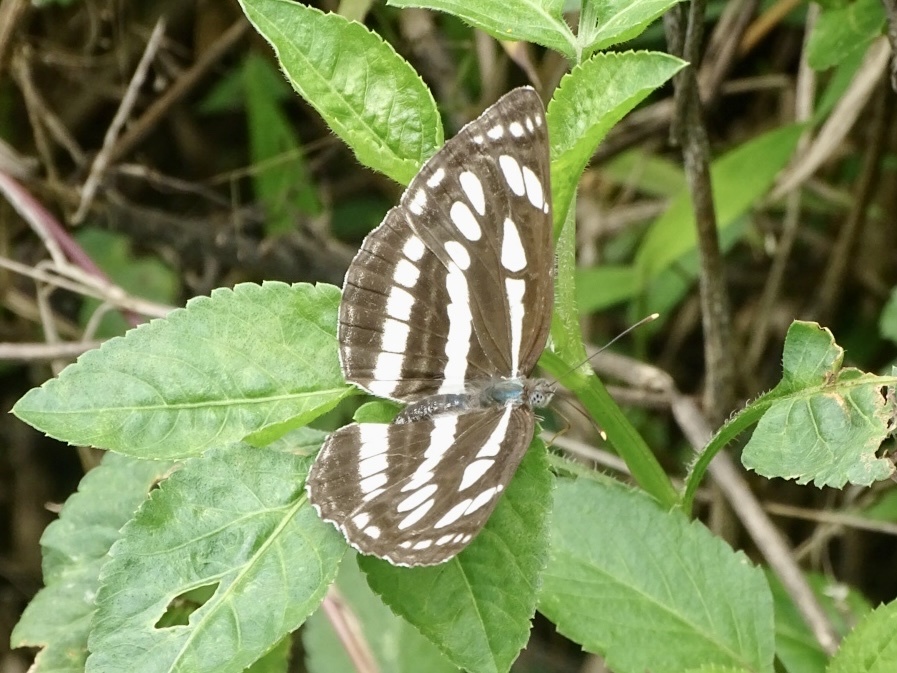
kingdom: Animalia
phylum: Arthropoda
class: Insecta
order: Lepidoptera
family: Nymphalidae
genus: Neptis
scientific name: Neptis hylas
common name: Common sailer
